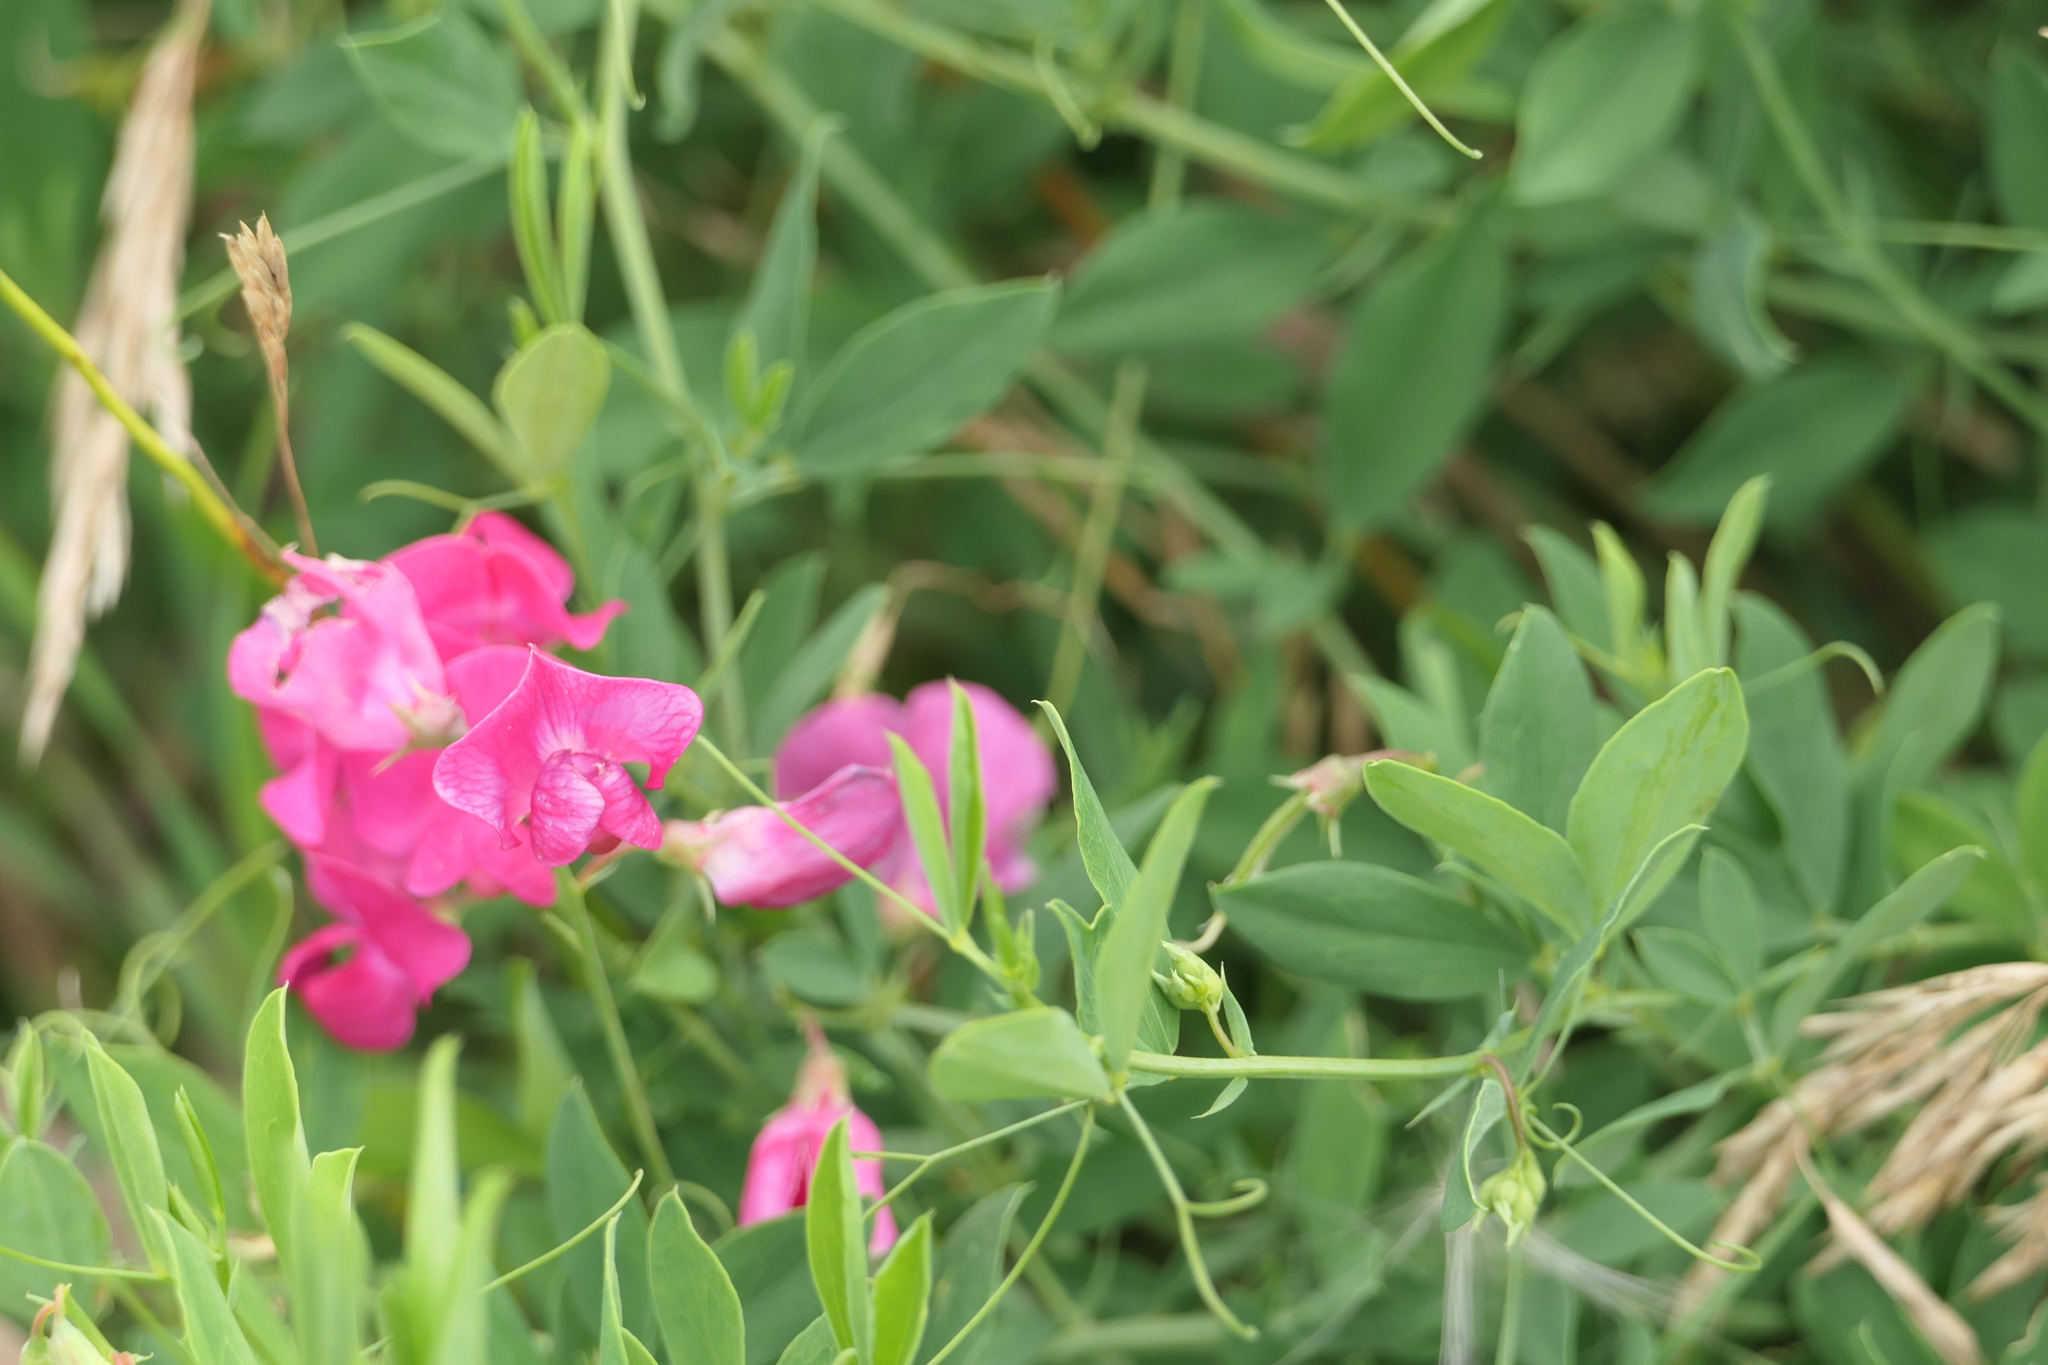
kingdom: Plantae
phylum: Tracheophyta
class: Magnoliopsida
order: Fabales
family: Fabaceae
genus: Lathyrus
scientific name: Lathyrus tuberosus
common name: Tuberous pea
